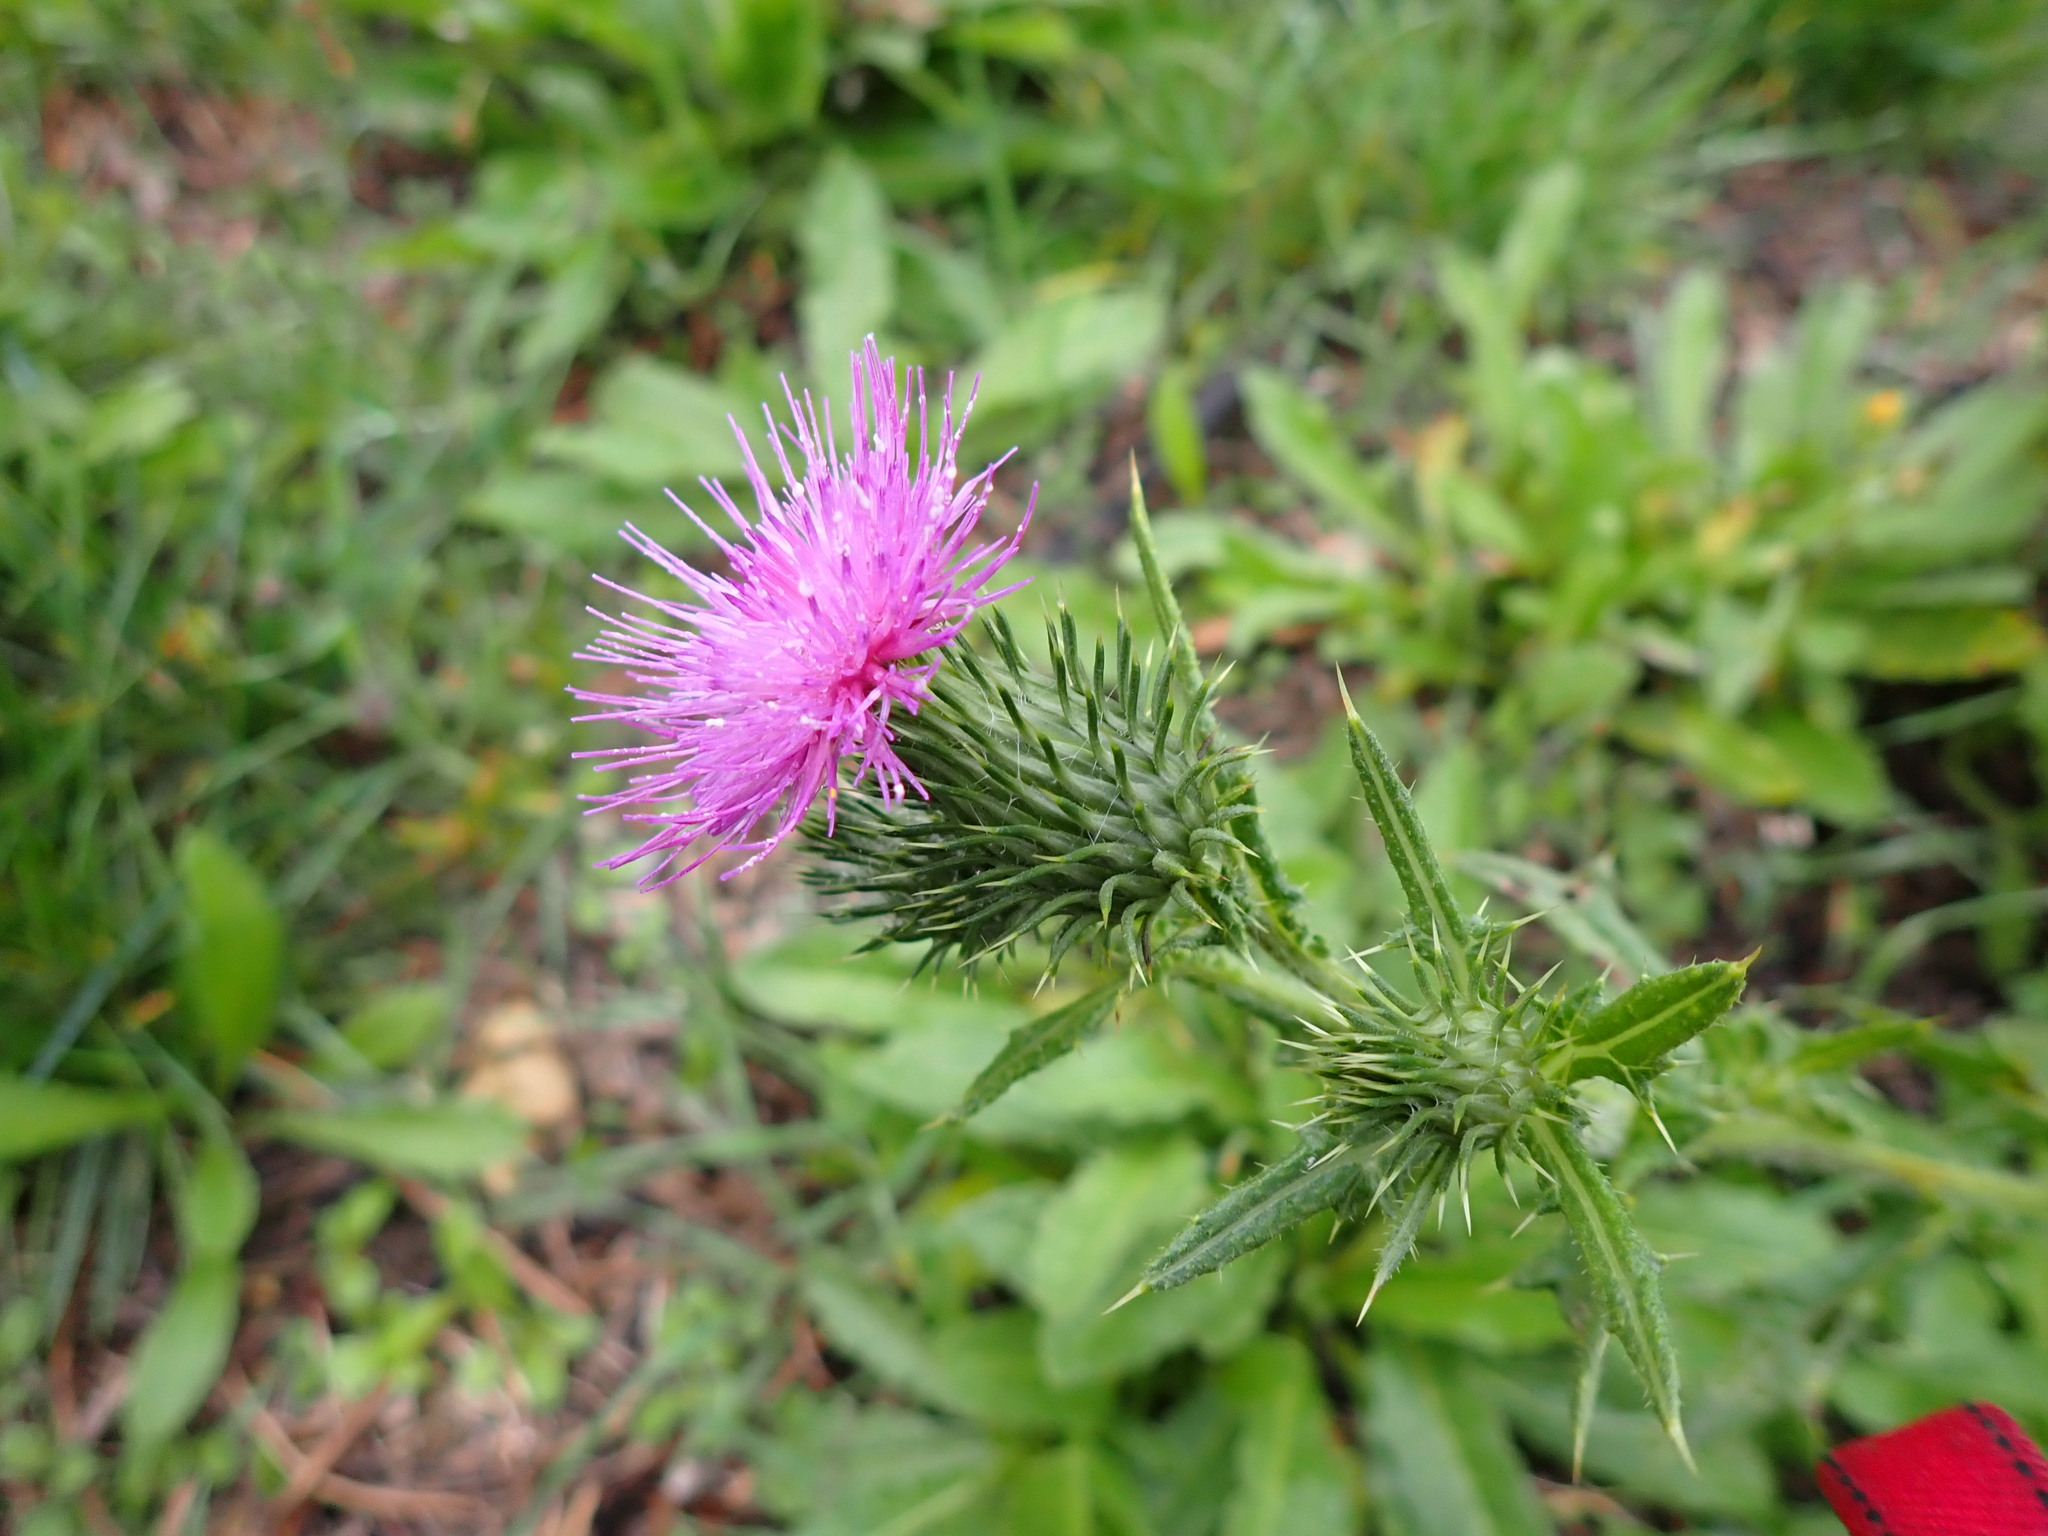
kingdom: Plantae
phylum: Tracheophyta
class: Magnoliopsida
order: Asterales
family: Asteraceae
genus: Cirsium
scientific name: Cirsium vulgare
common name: Bull thistle
